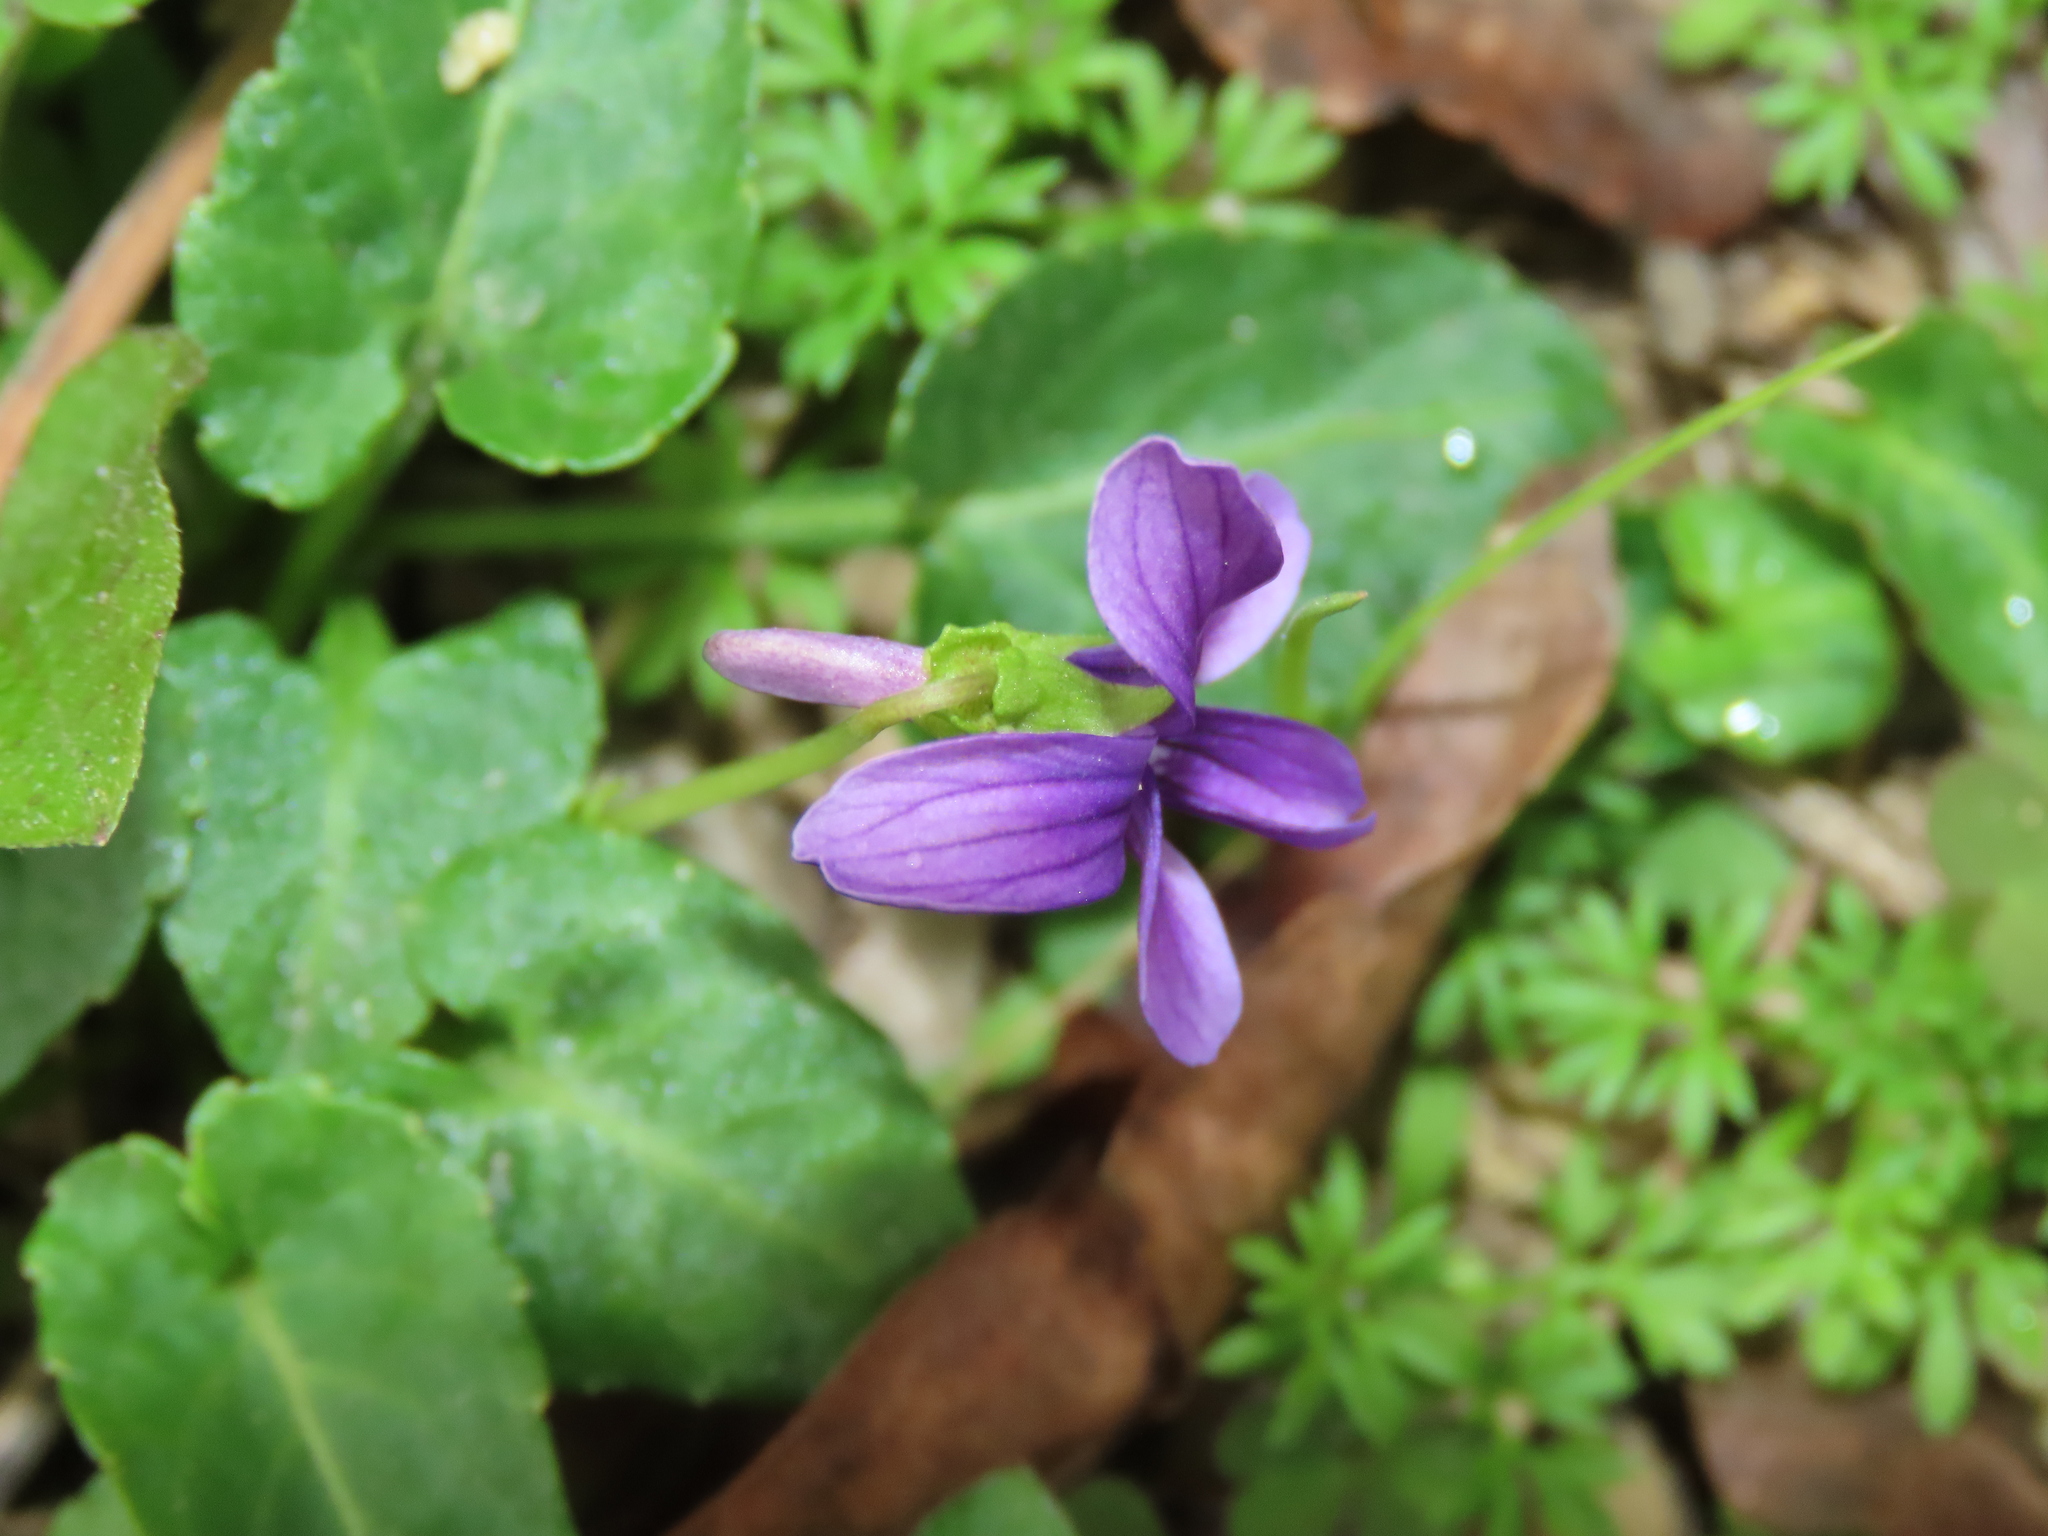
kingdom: Plantae
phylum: Tracheophyta
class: Magnoliopsida
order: Malpighiales
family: Violaceae
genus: Viola
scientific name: Viola
